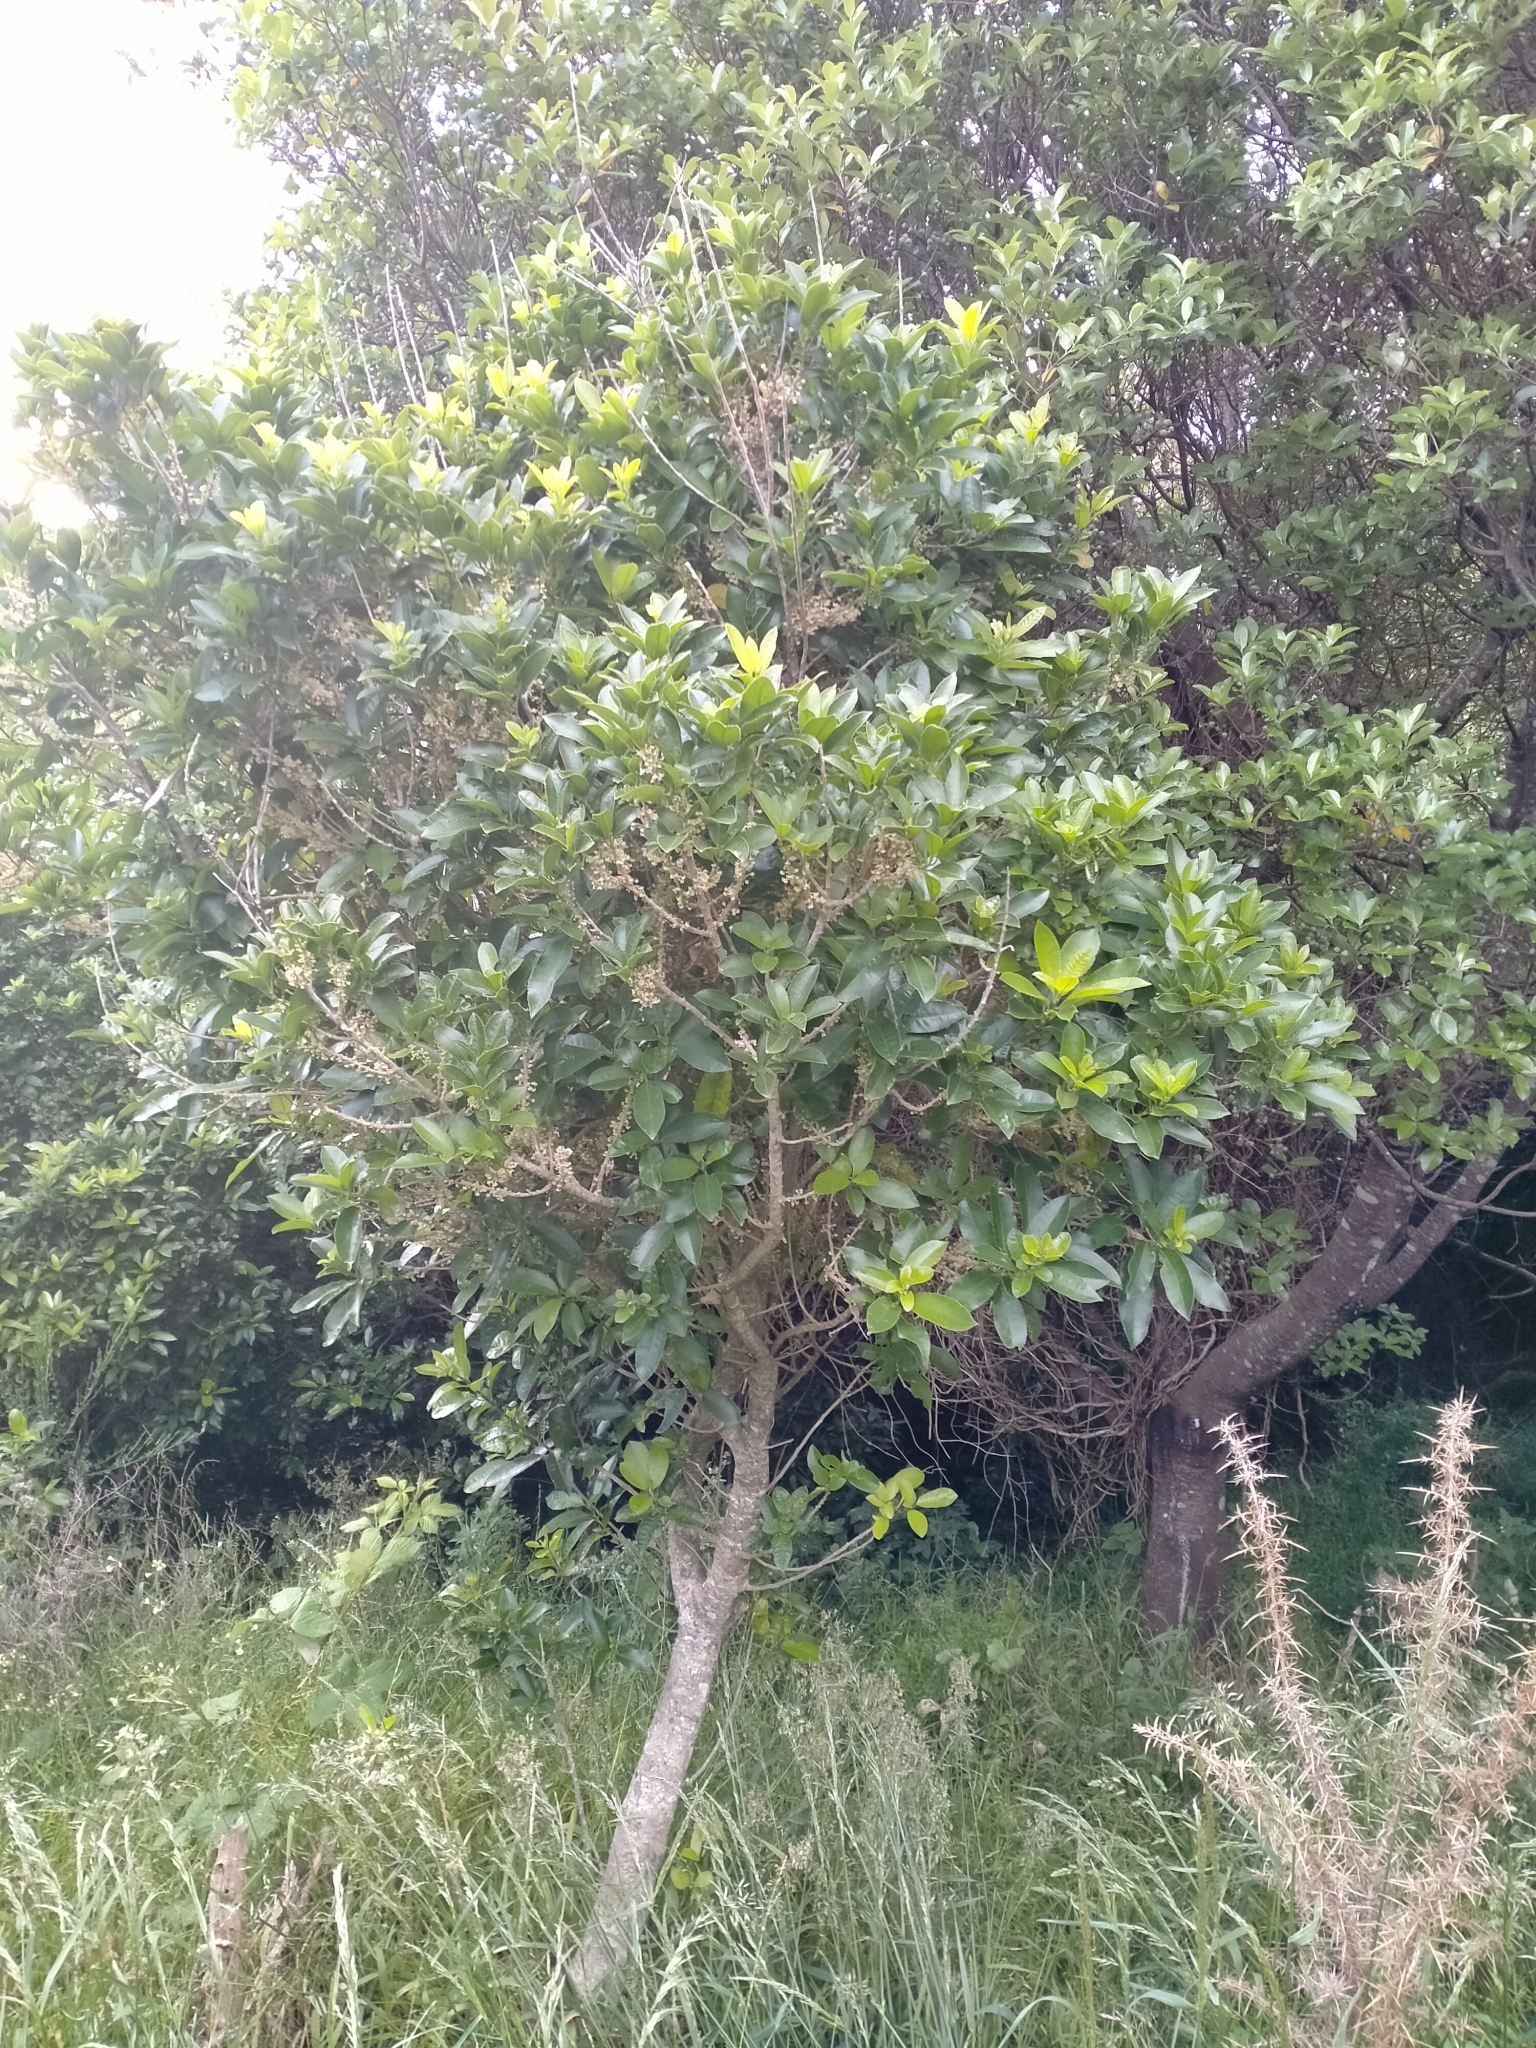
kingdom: Plantae
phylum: Tracheophyta
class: Magnoliopsida
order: Malpighiales
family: Violaceae
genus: Melicytus
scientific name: Melicytus ramiflorus
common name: Mahoe
